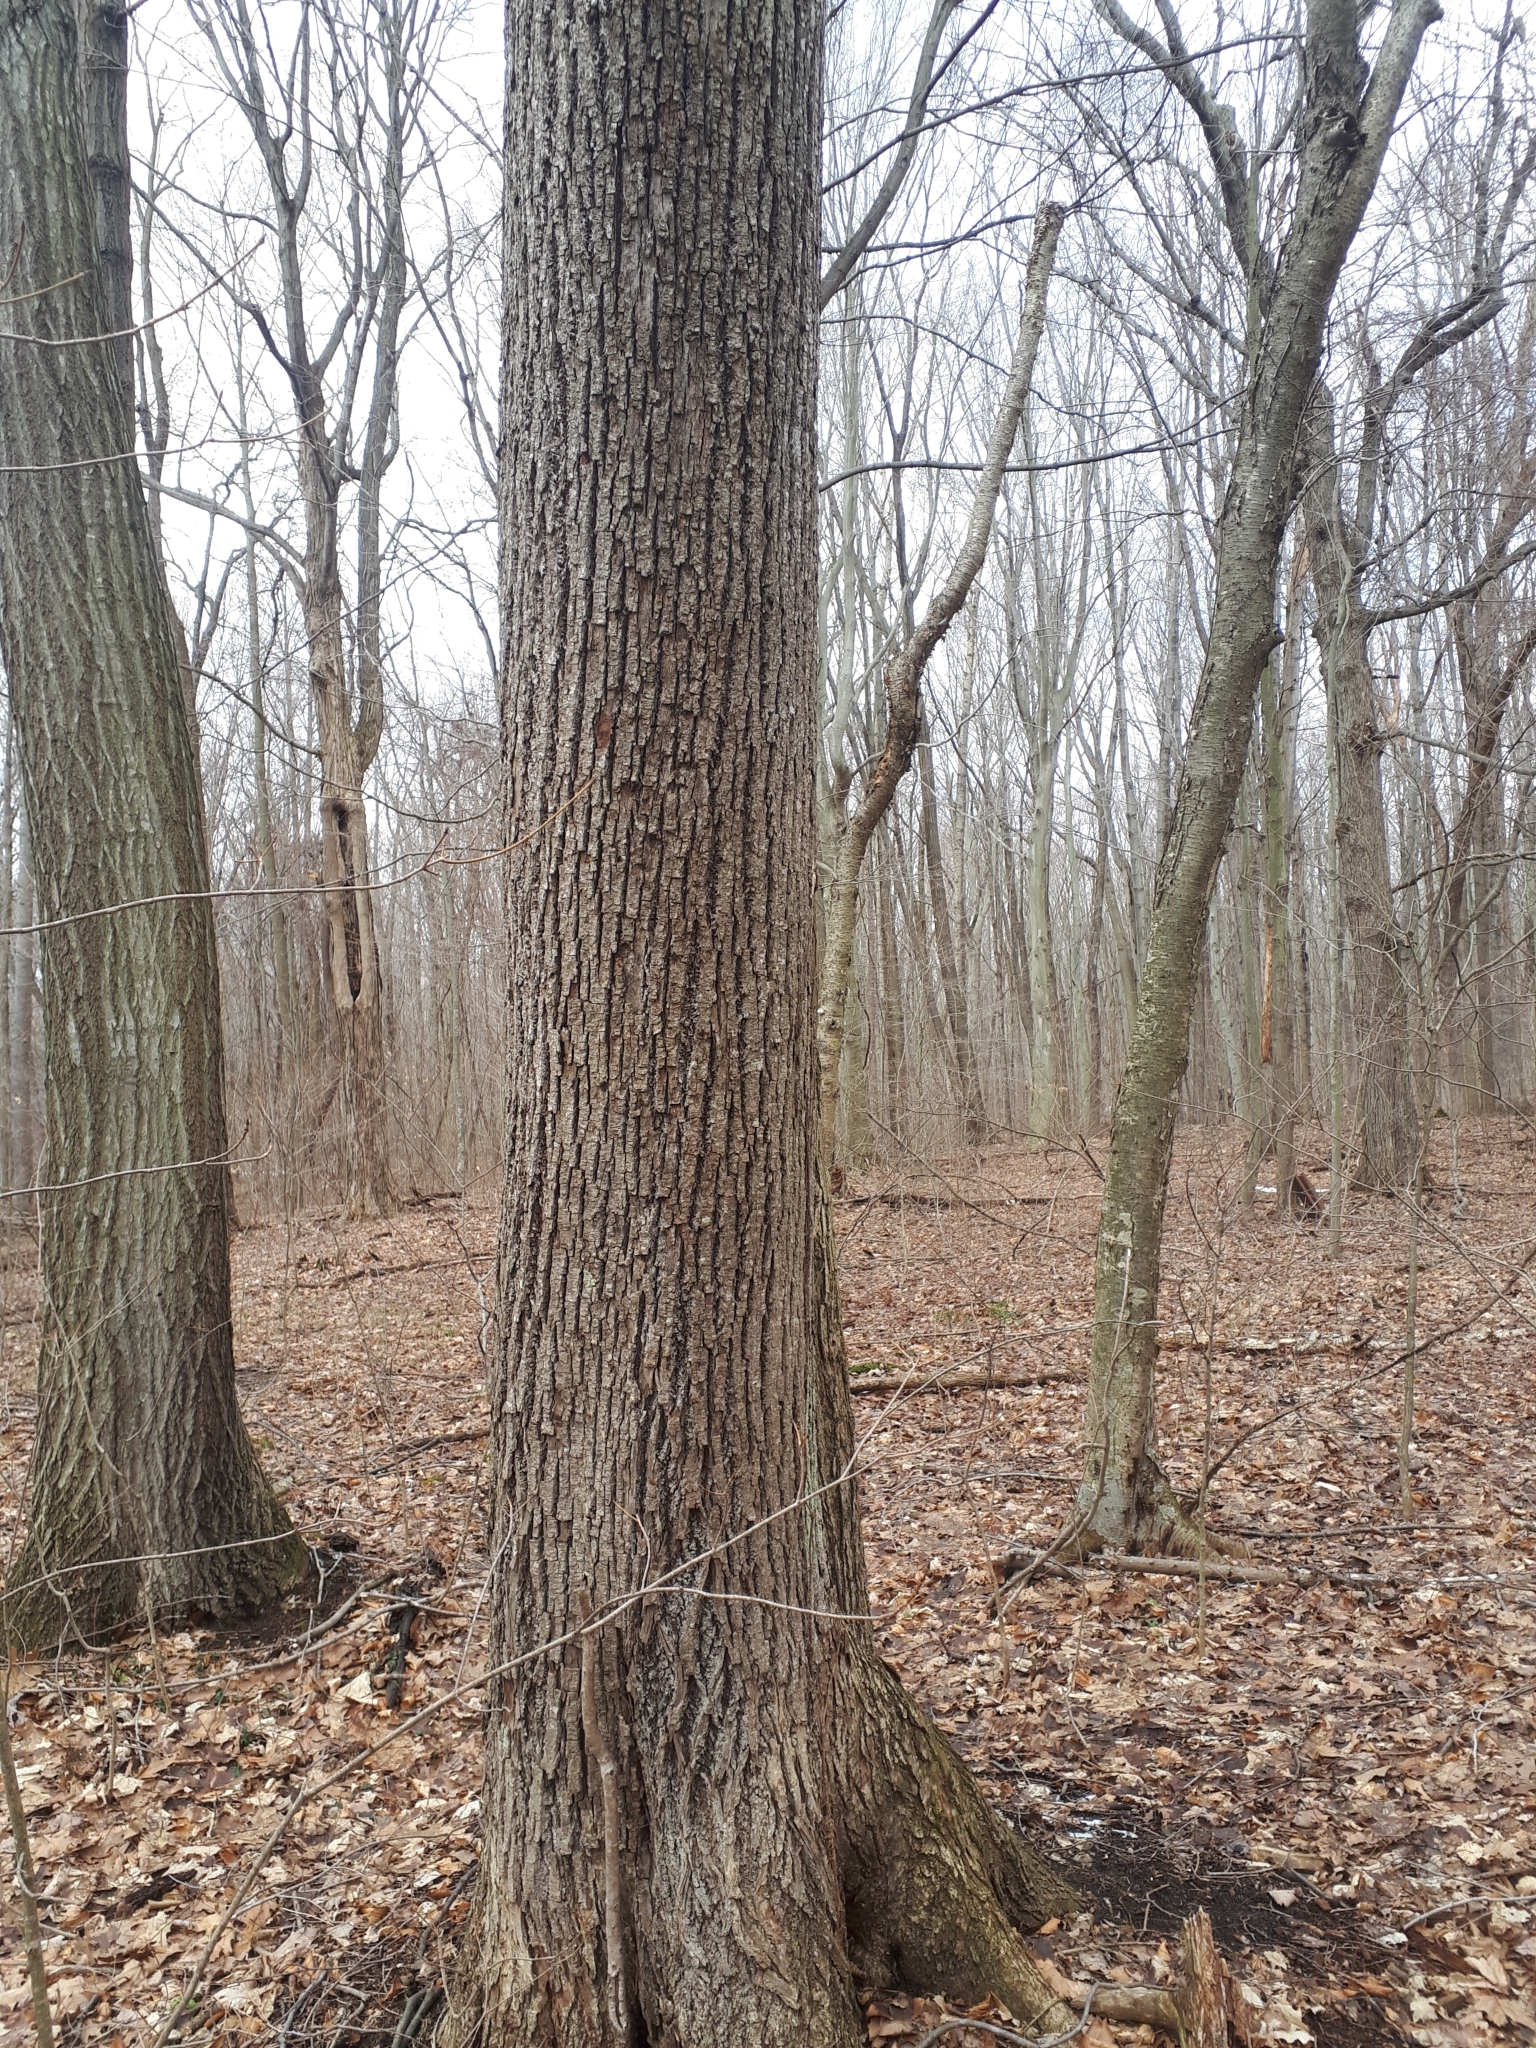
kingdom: Plantae
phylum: Tracheophyta
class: Magnoliopsida
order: Malvales
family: Malvaceae
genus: Tilia
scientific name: Tilia americana
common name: Basswood
